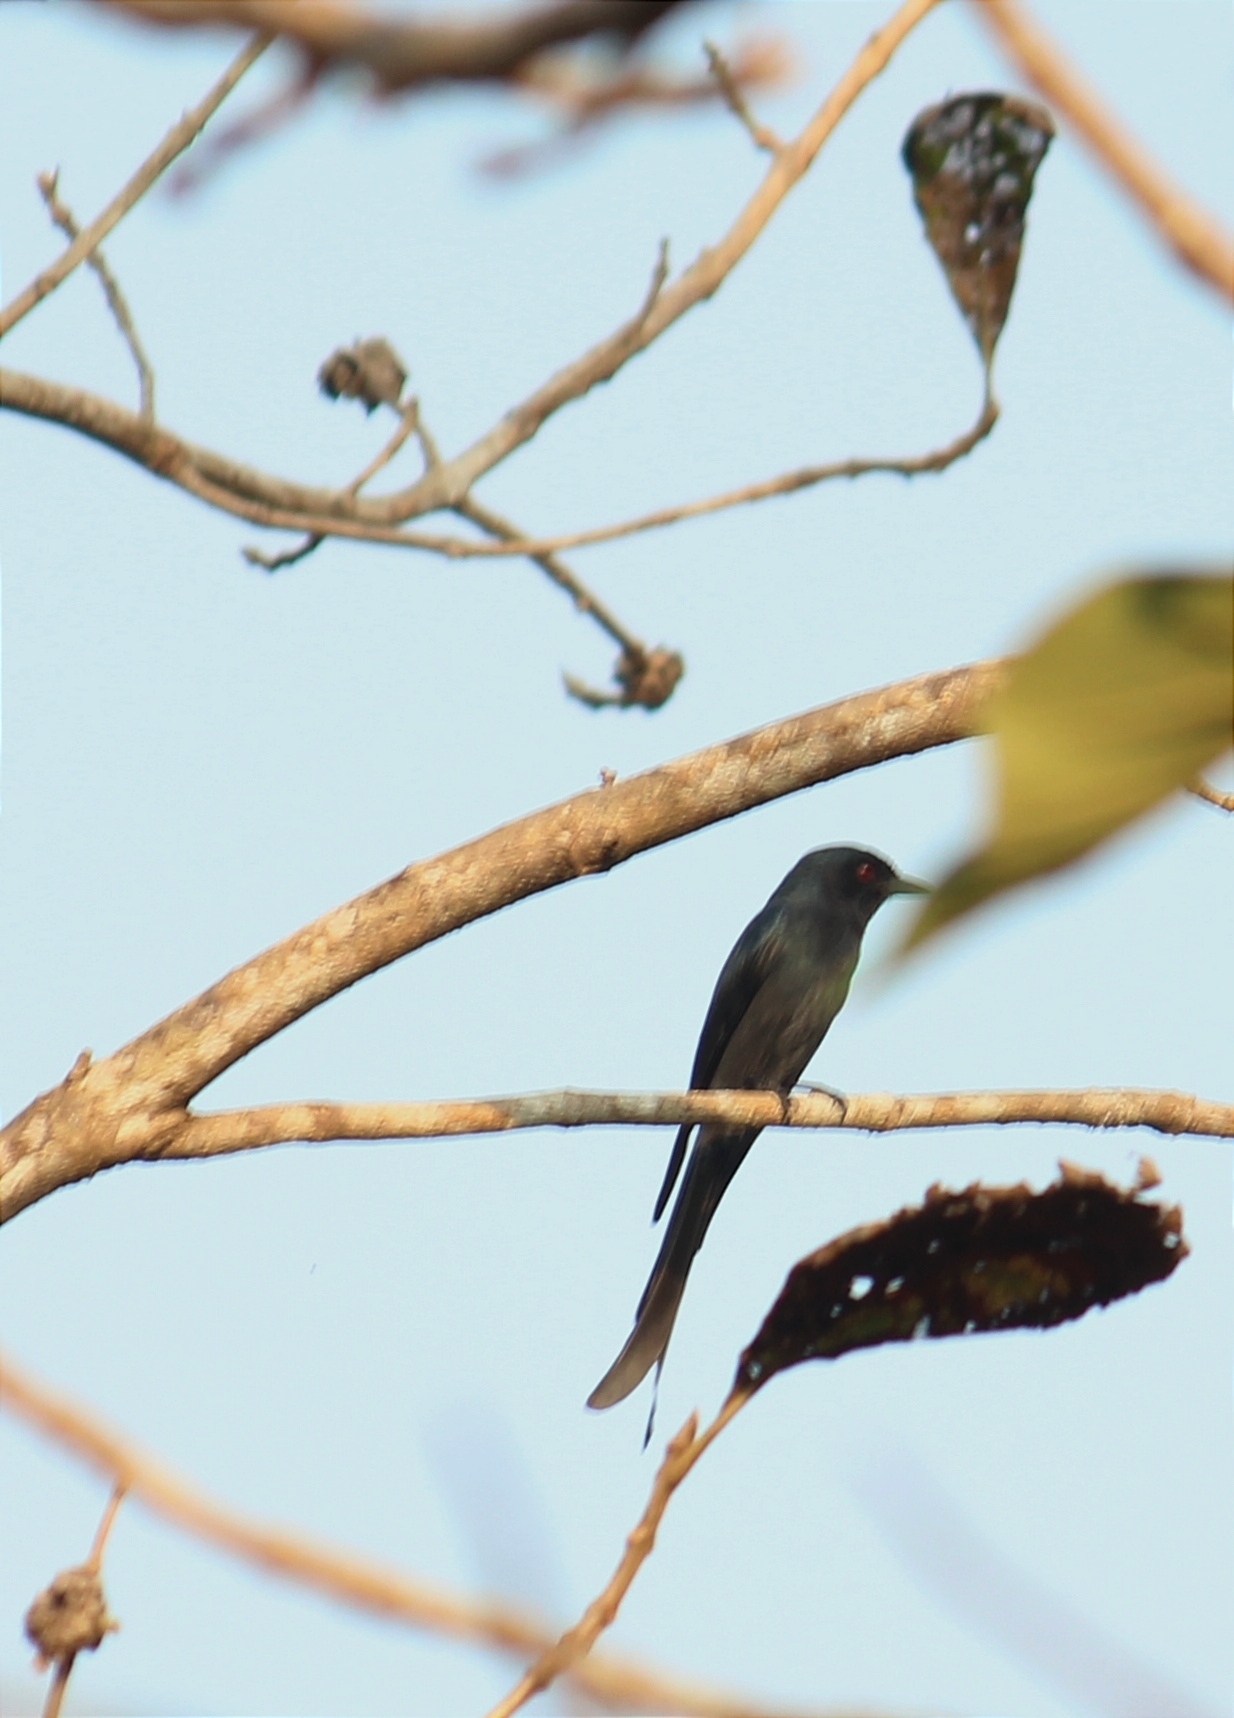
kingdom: Animalia
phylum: Chordata
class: Aves
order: Passeriformes
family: Dicruridae
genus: Dicrurus
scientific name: Dicrurus leucophaeus
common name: Ashy drongo
